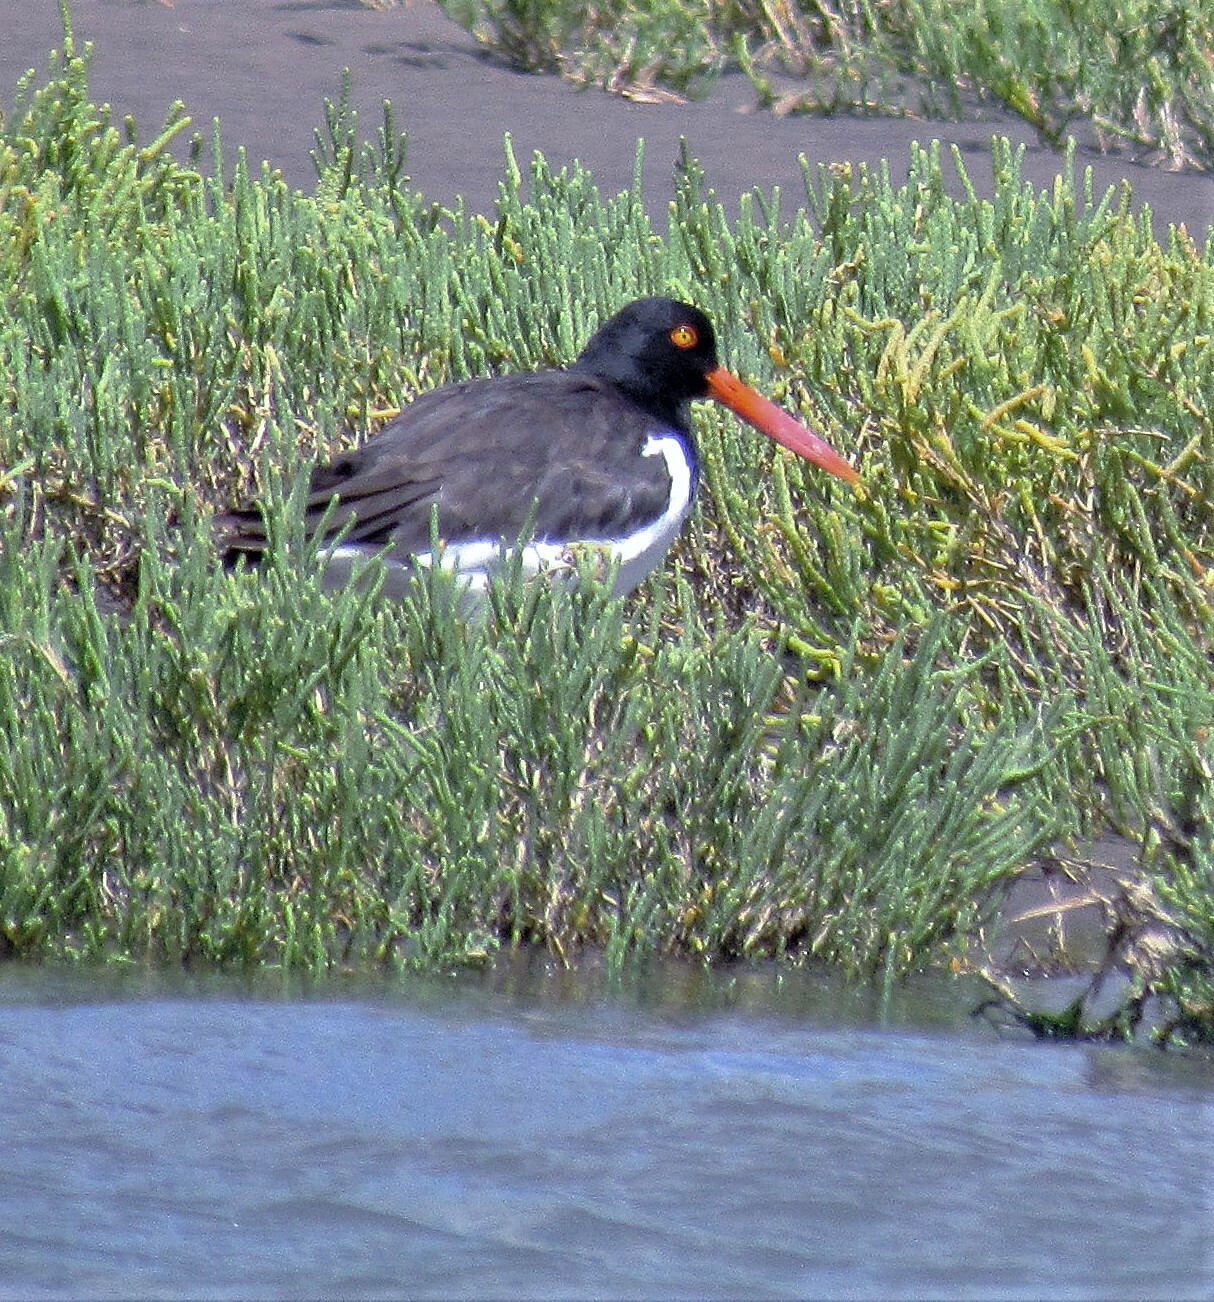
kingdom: Animalia
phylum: Chordata
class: Aves
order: Charadriiformes
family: Haematopodidae
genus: Haematopus
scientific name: Haematopus palliatus
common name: American oystercatcher
